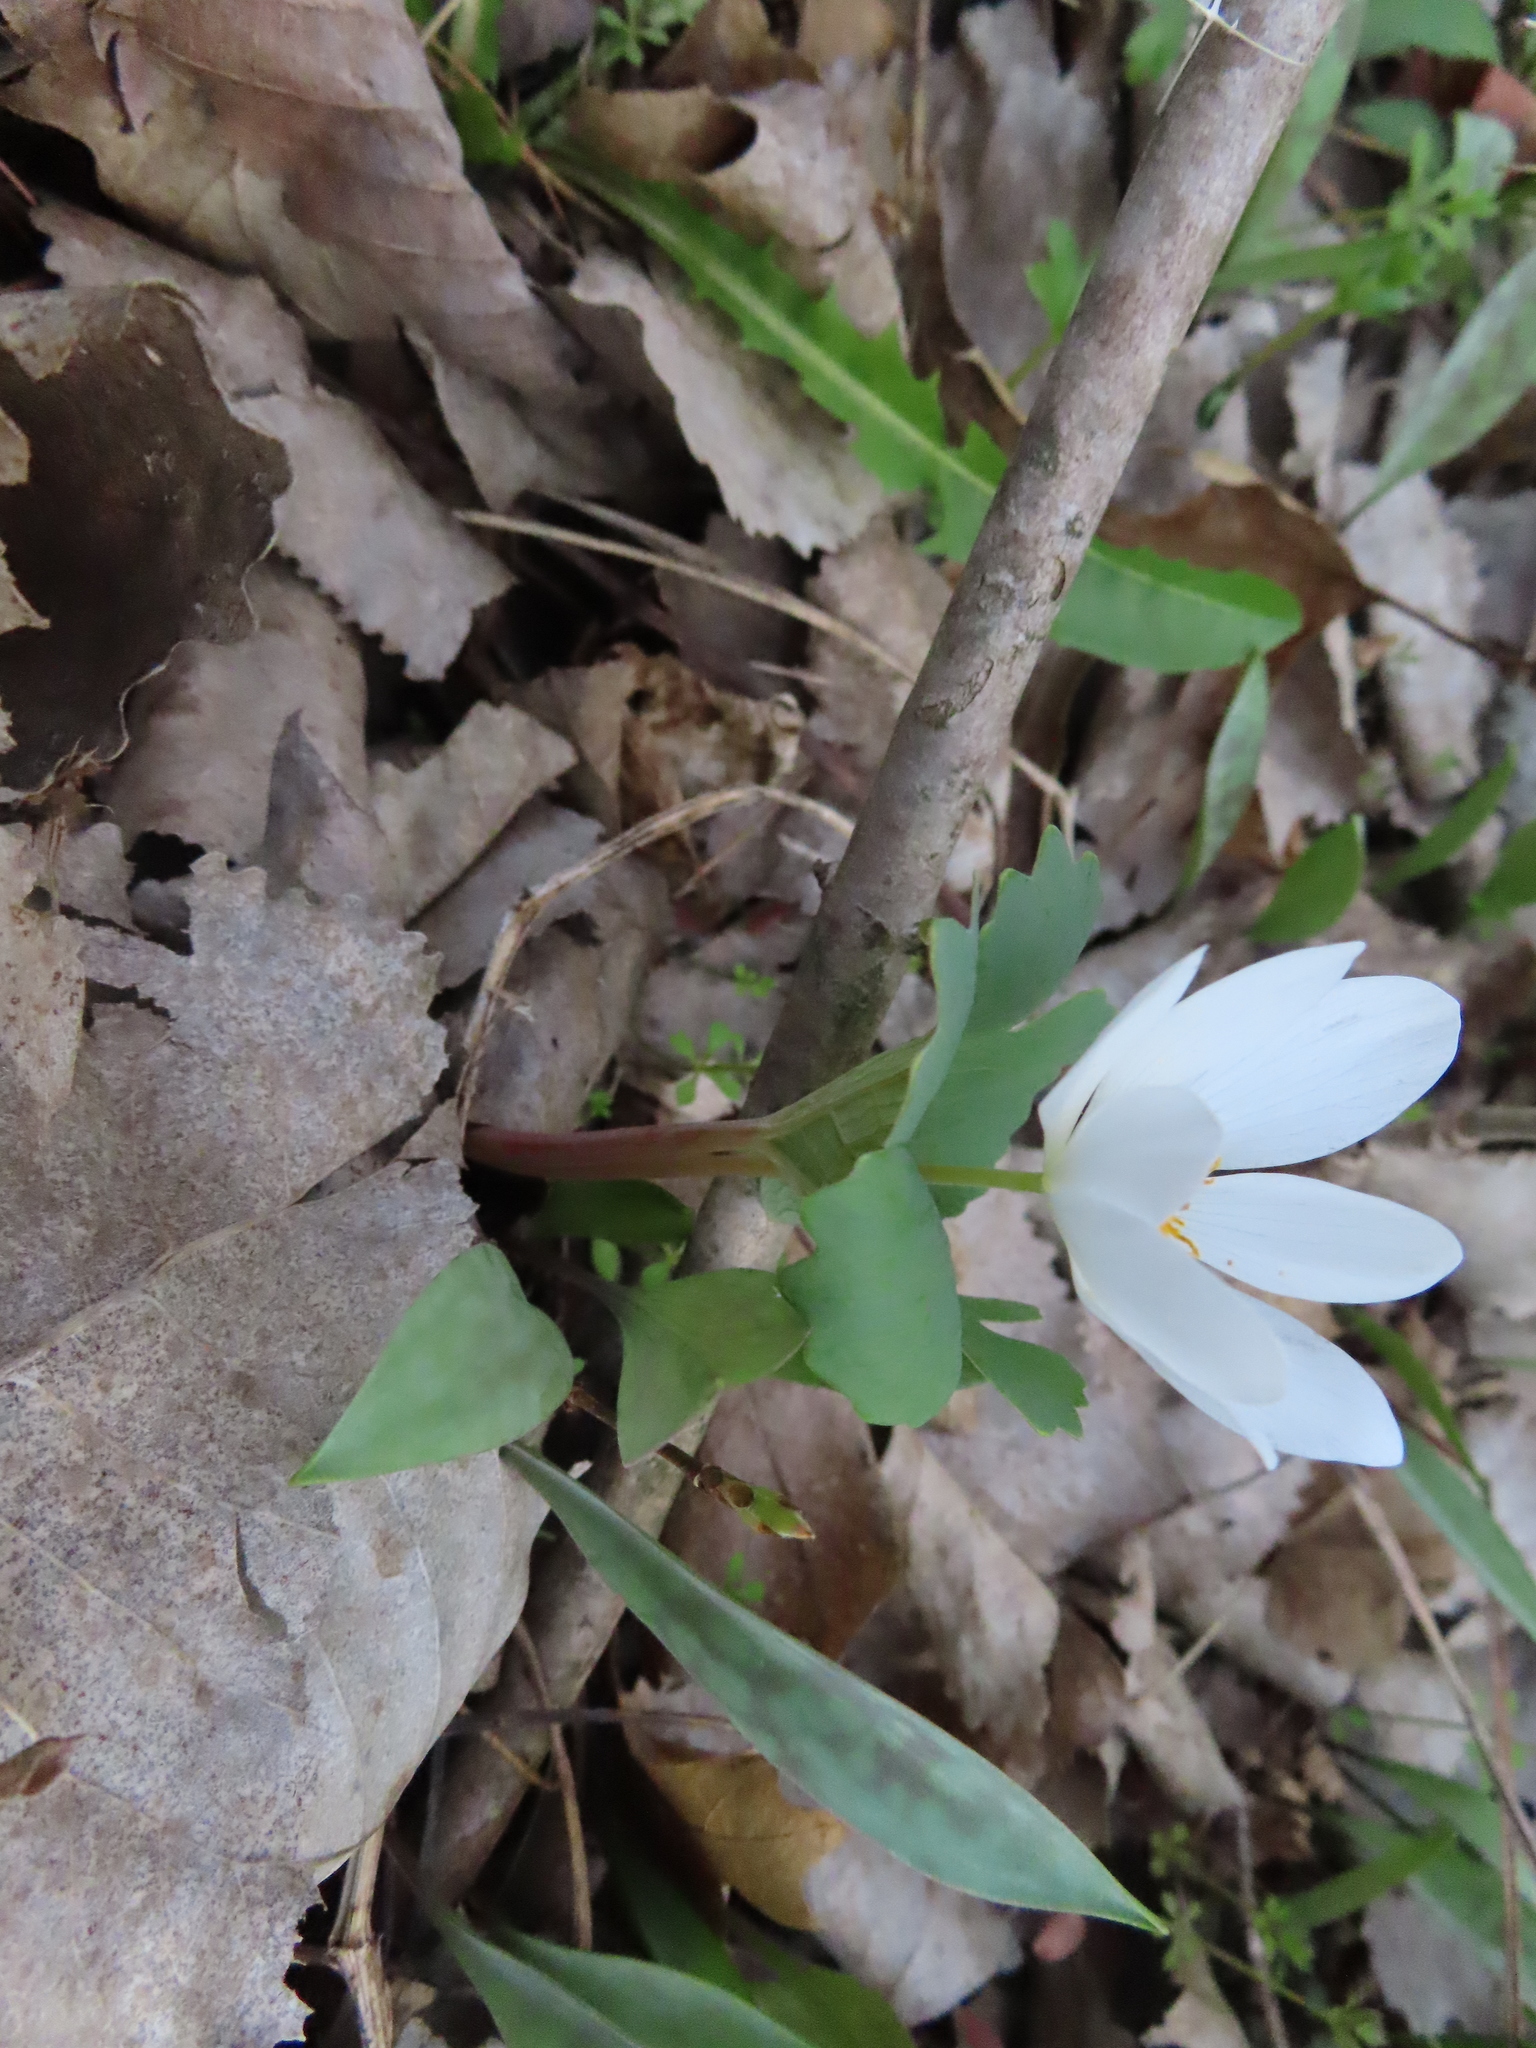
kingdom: Plantae
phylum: Tracheophyta
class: Magnoliopsida
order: Ranunculales
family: Papaveraceae
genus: Sanguinaria
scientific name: Sanguinaria canadensis
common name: Bloodroot
